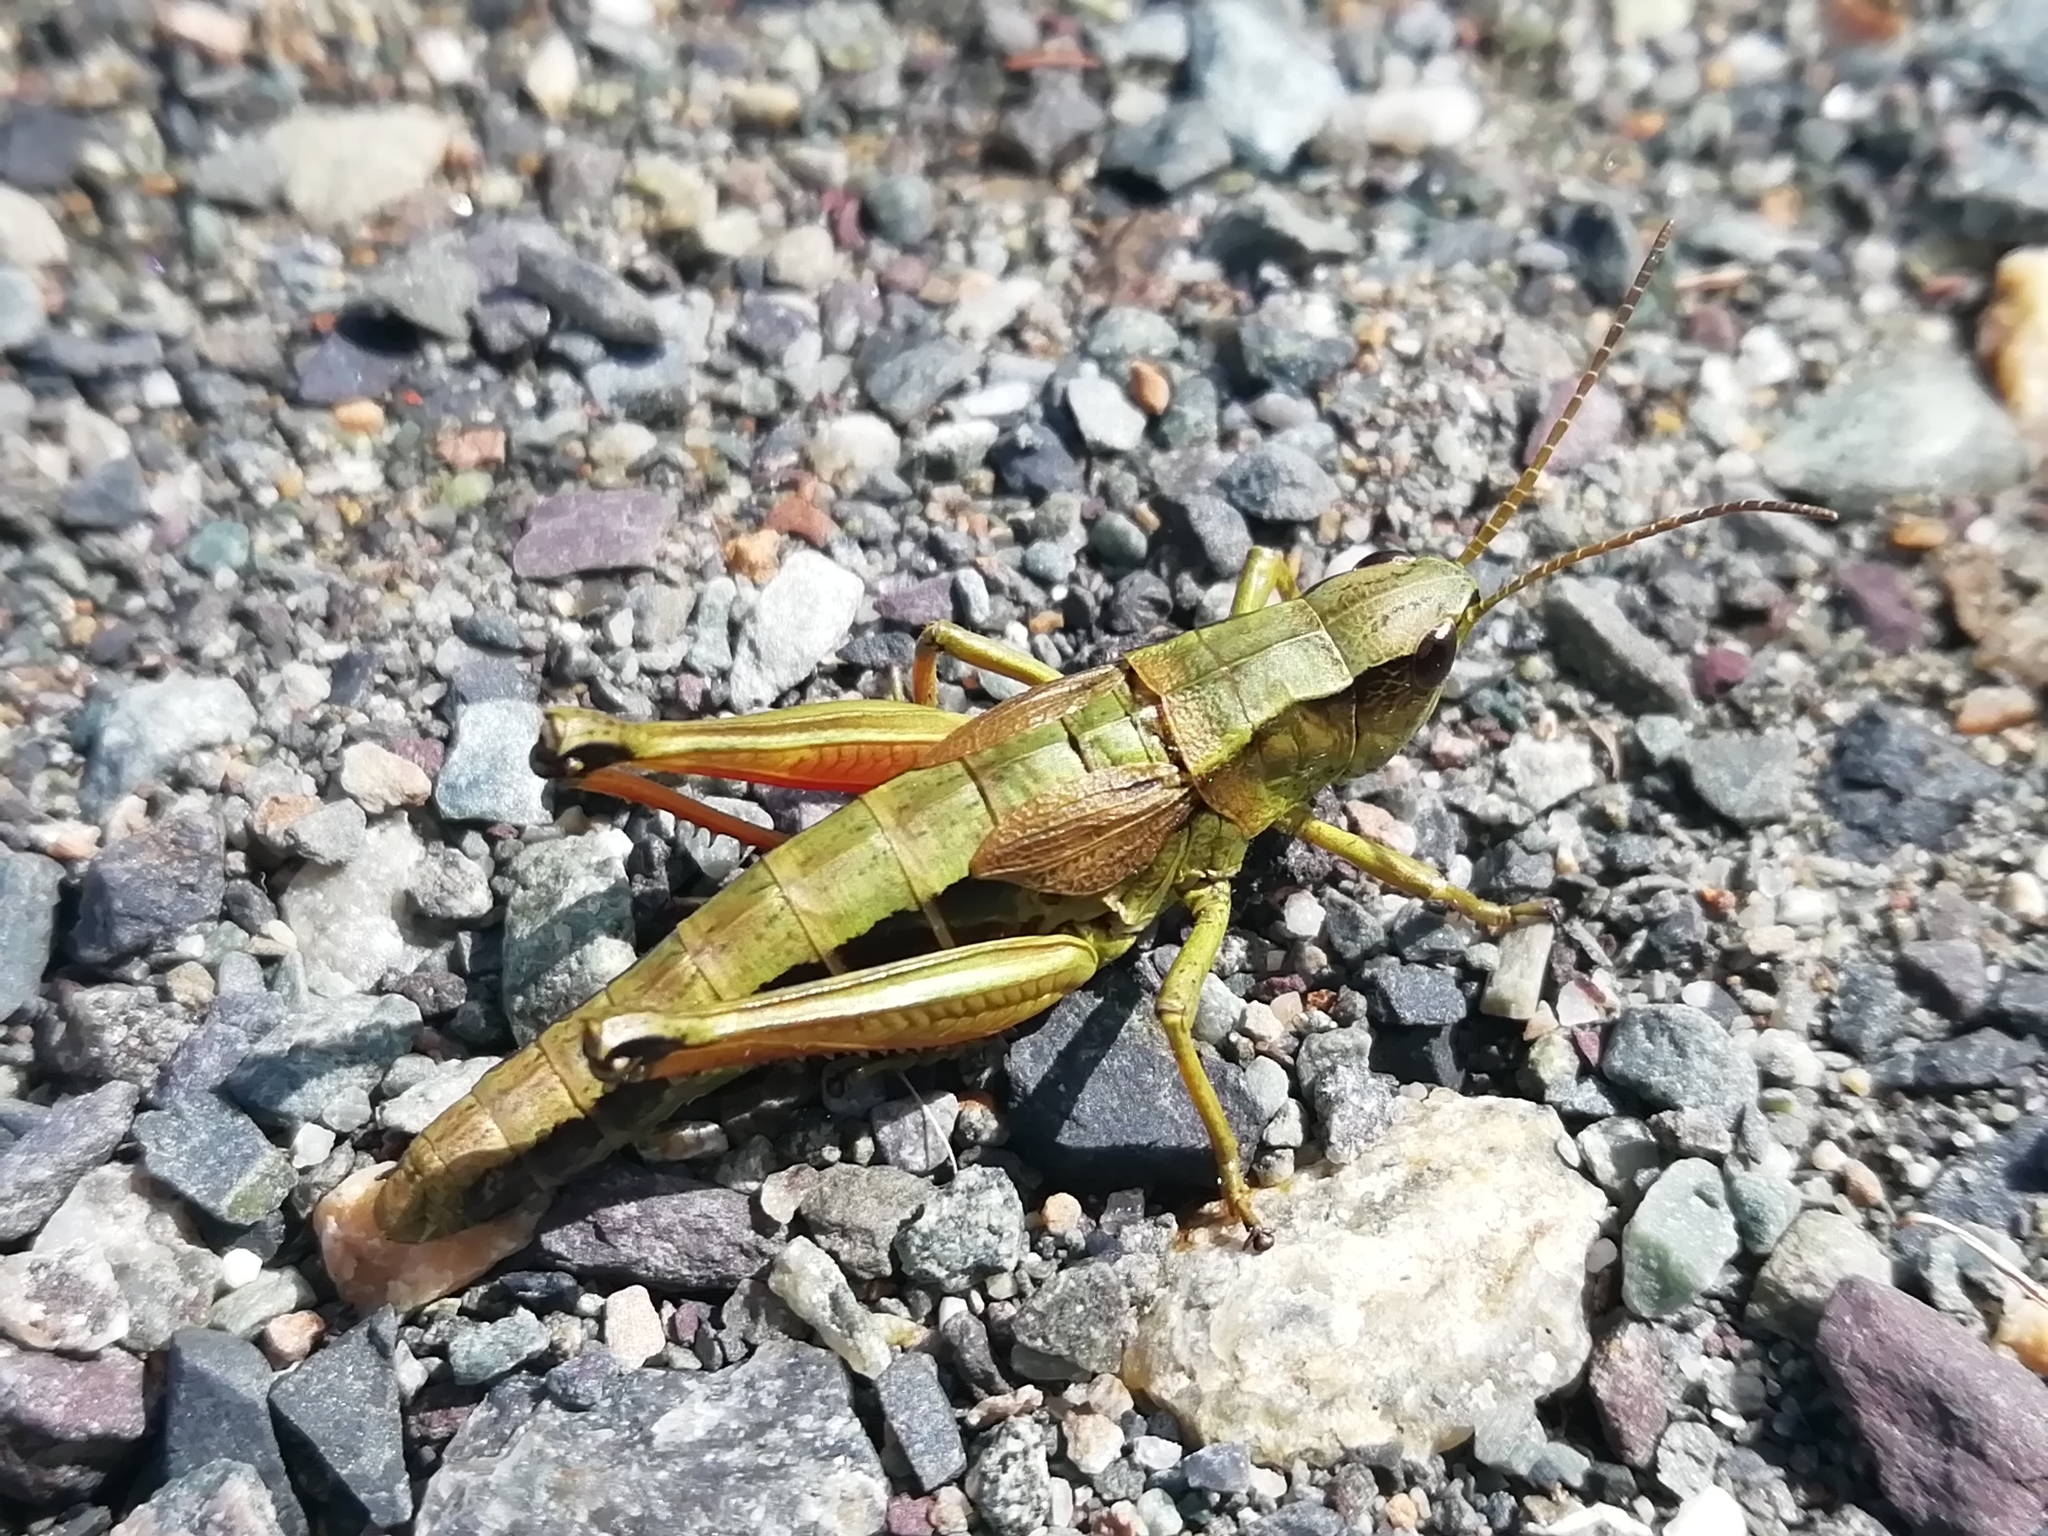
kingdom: Animalia
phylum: Arthropoda
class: Insecta
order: Orthoptera
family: Acrididae
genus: Podismopsis
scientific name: Podismopsis poppiusi
